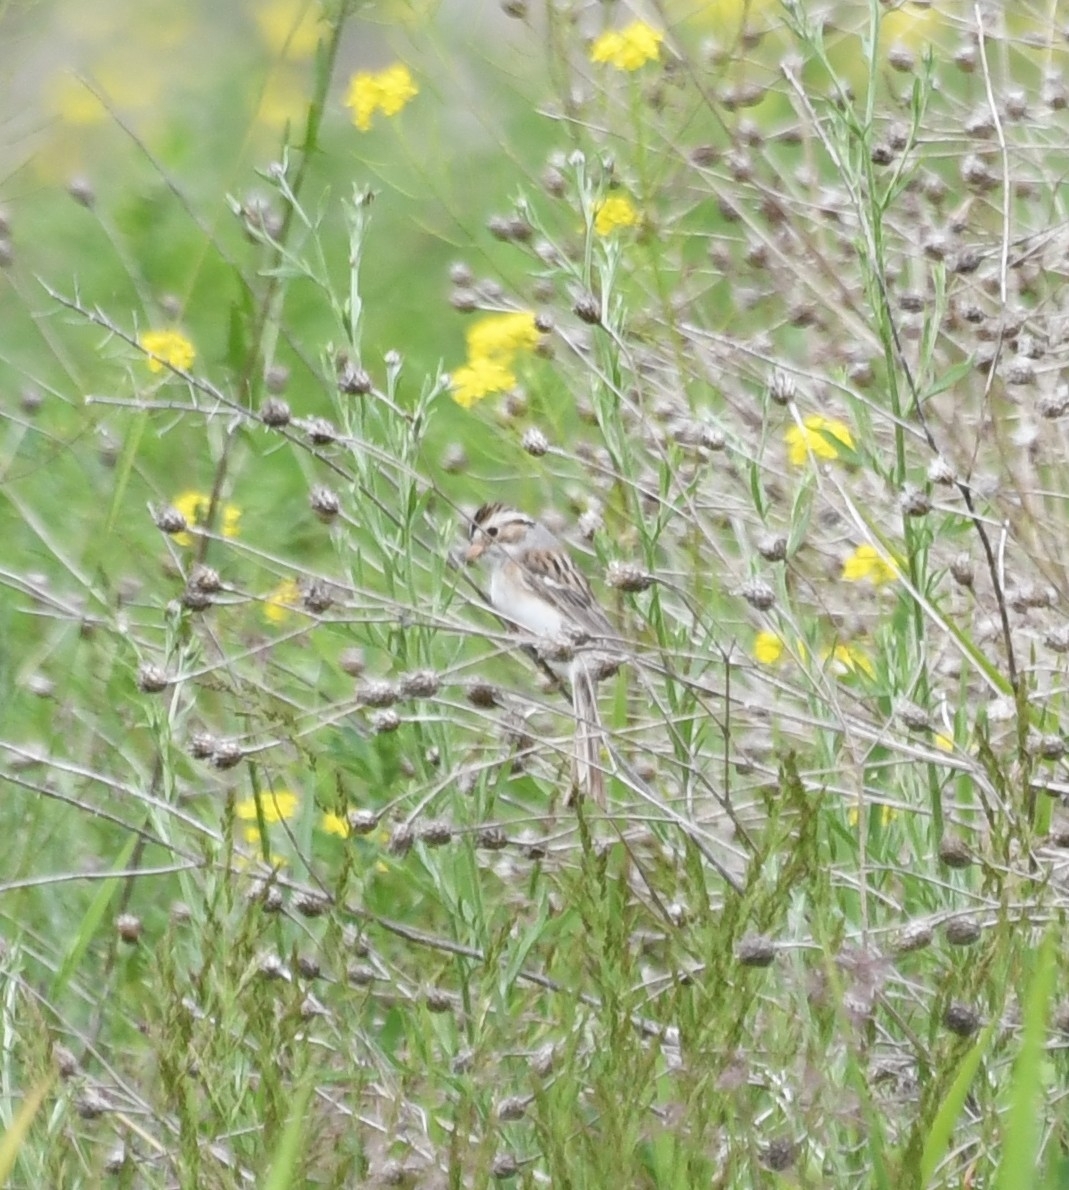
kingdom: Animalia
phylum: Chordata
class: Aves
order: Passeriformes
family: Passerellidae
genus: Spizella
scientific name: Spizella pallida
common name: Clay-colored sparrow
